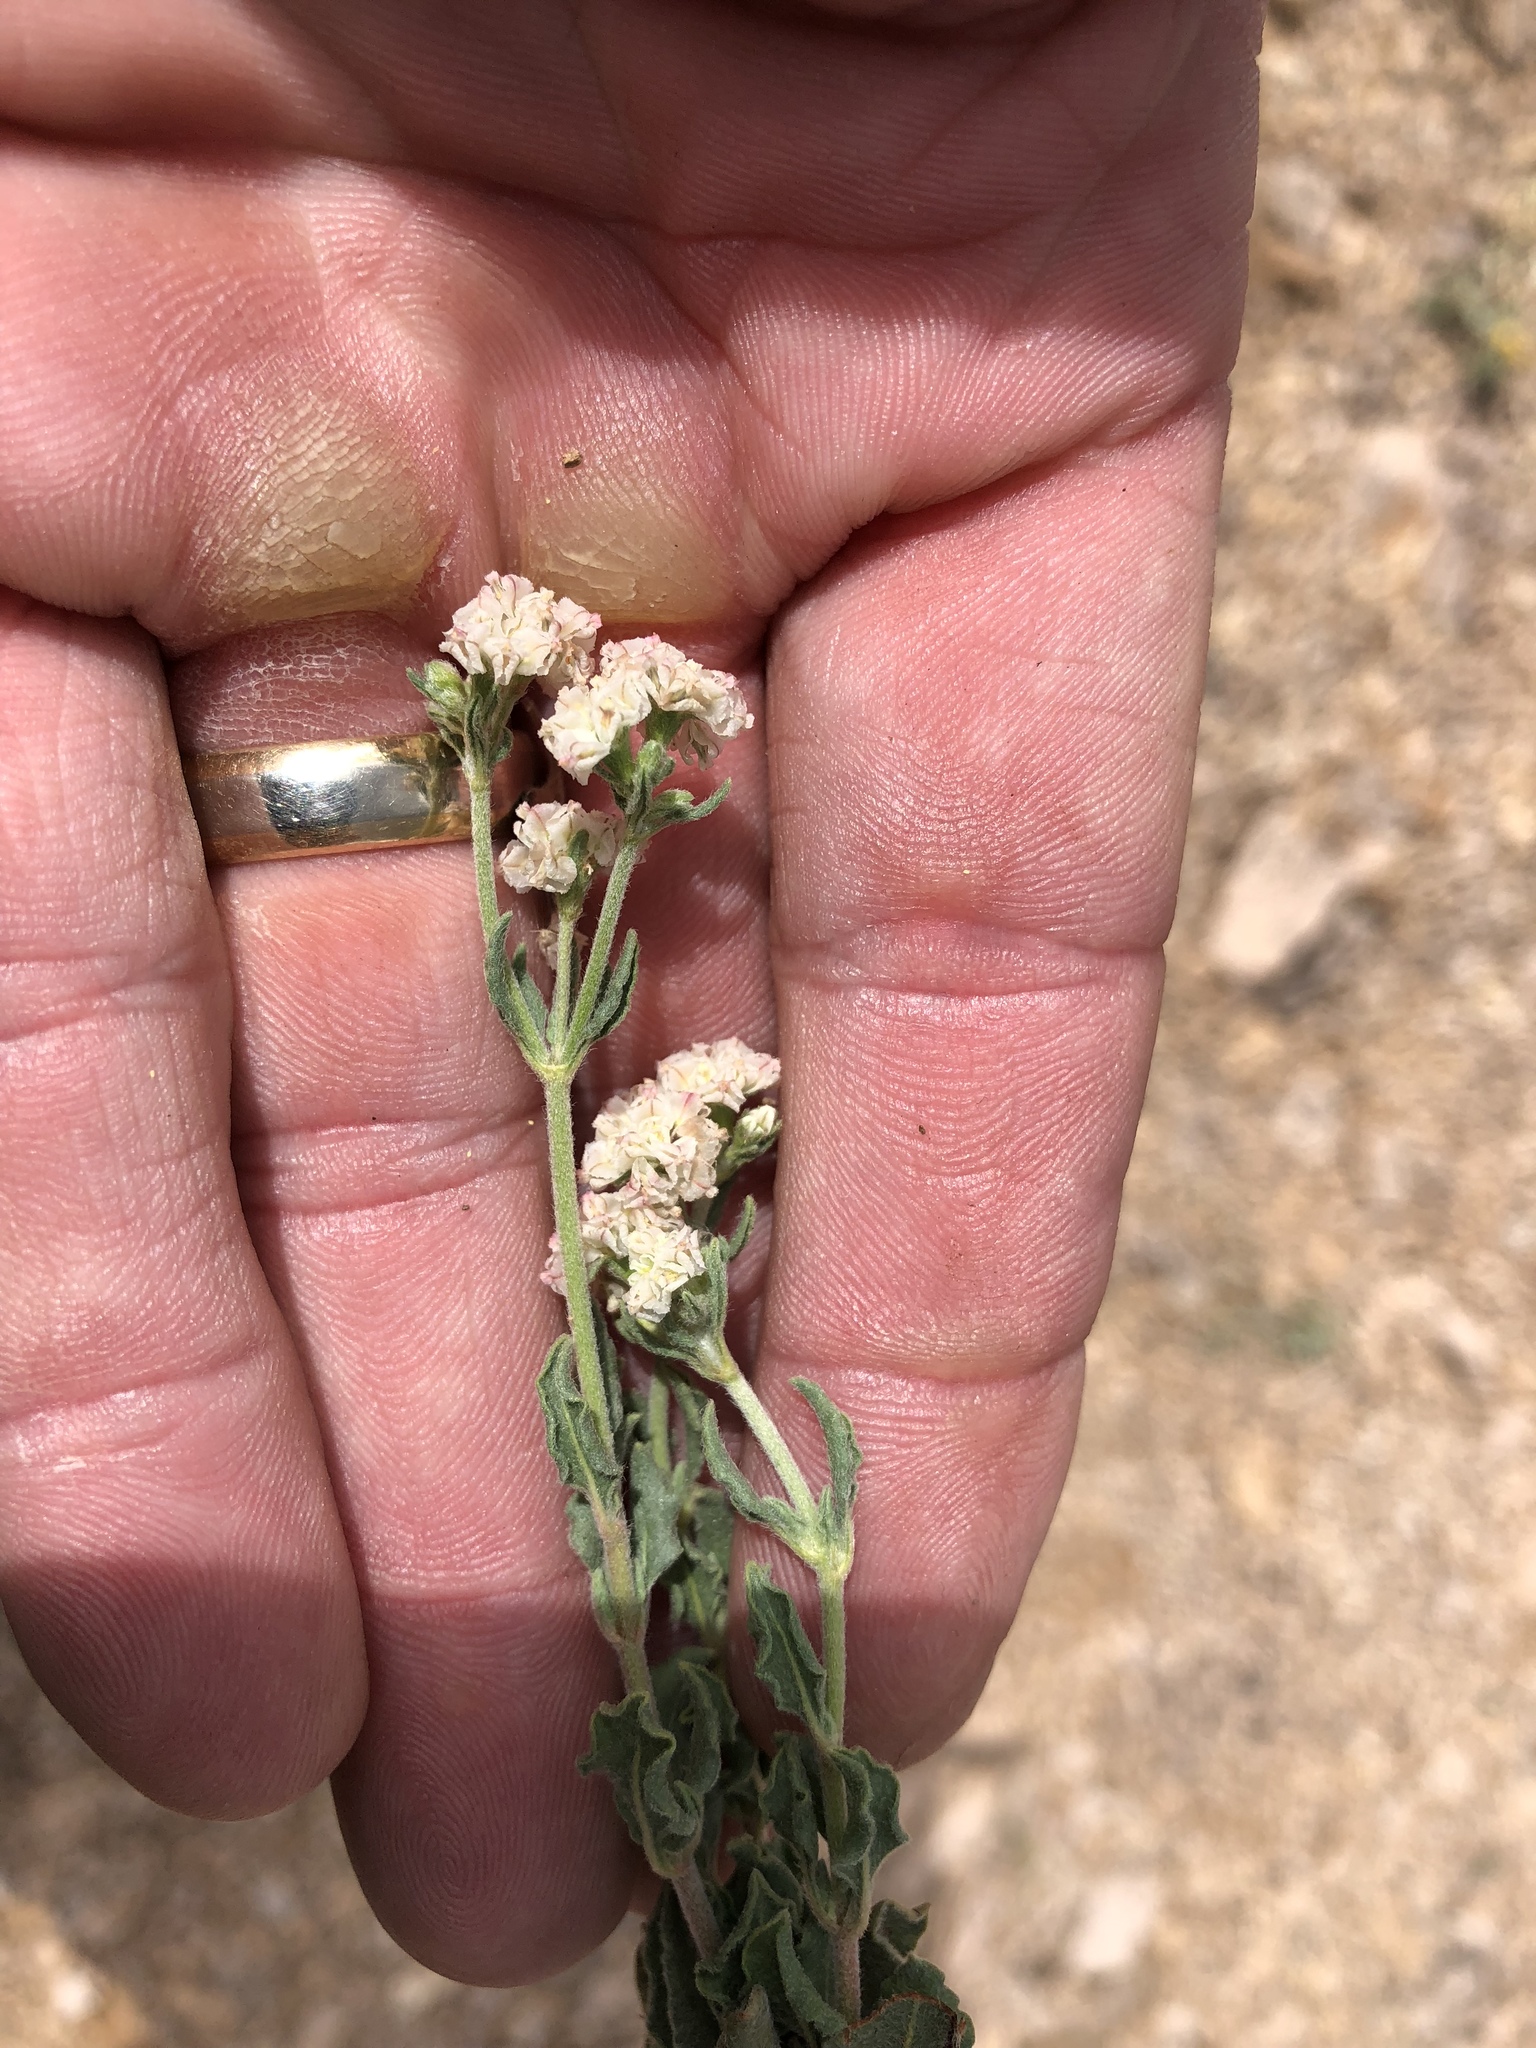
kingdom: Plantae
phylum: Tracheophyta
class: Magnoliopsida
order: Caryophyllales
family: Polygonaceae
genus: Eriogonum
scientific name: Eriogonum abertianum
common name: Abert's wild buckwheat
